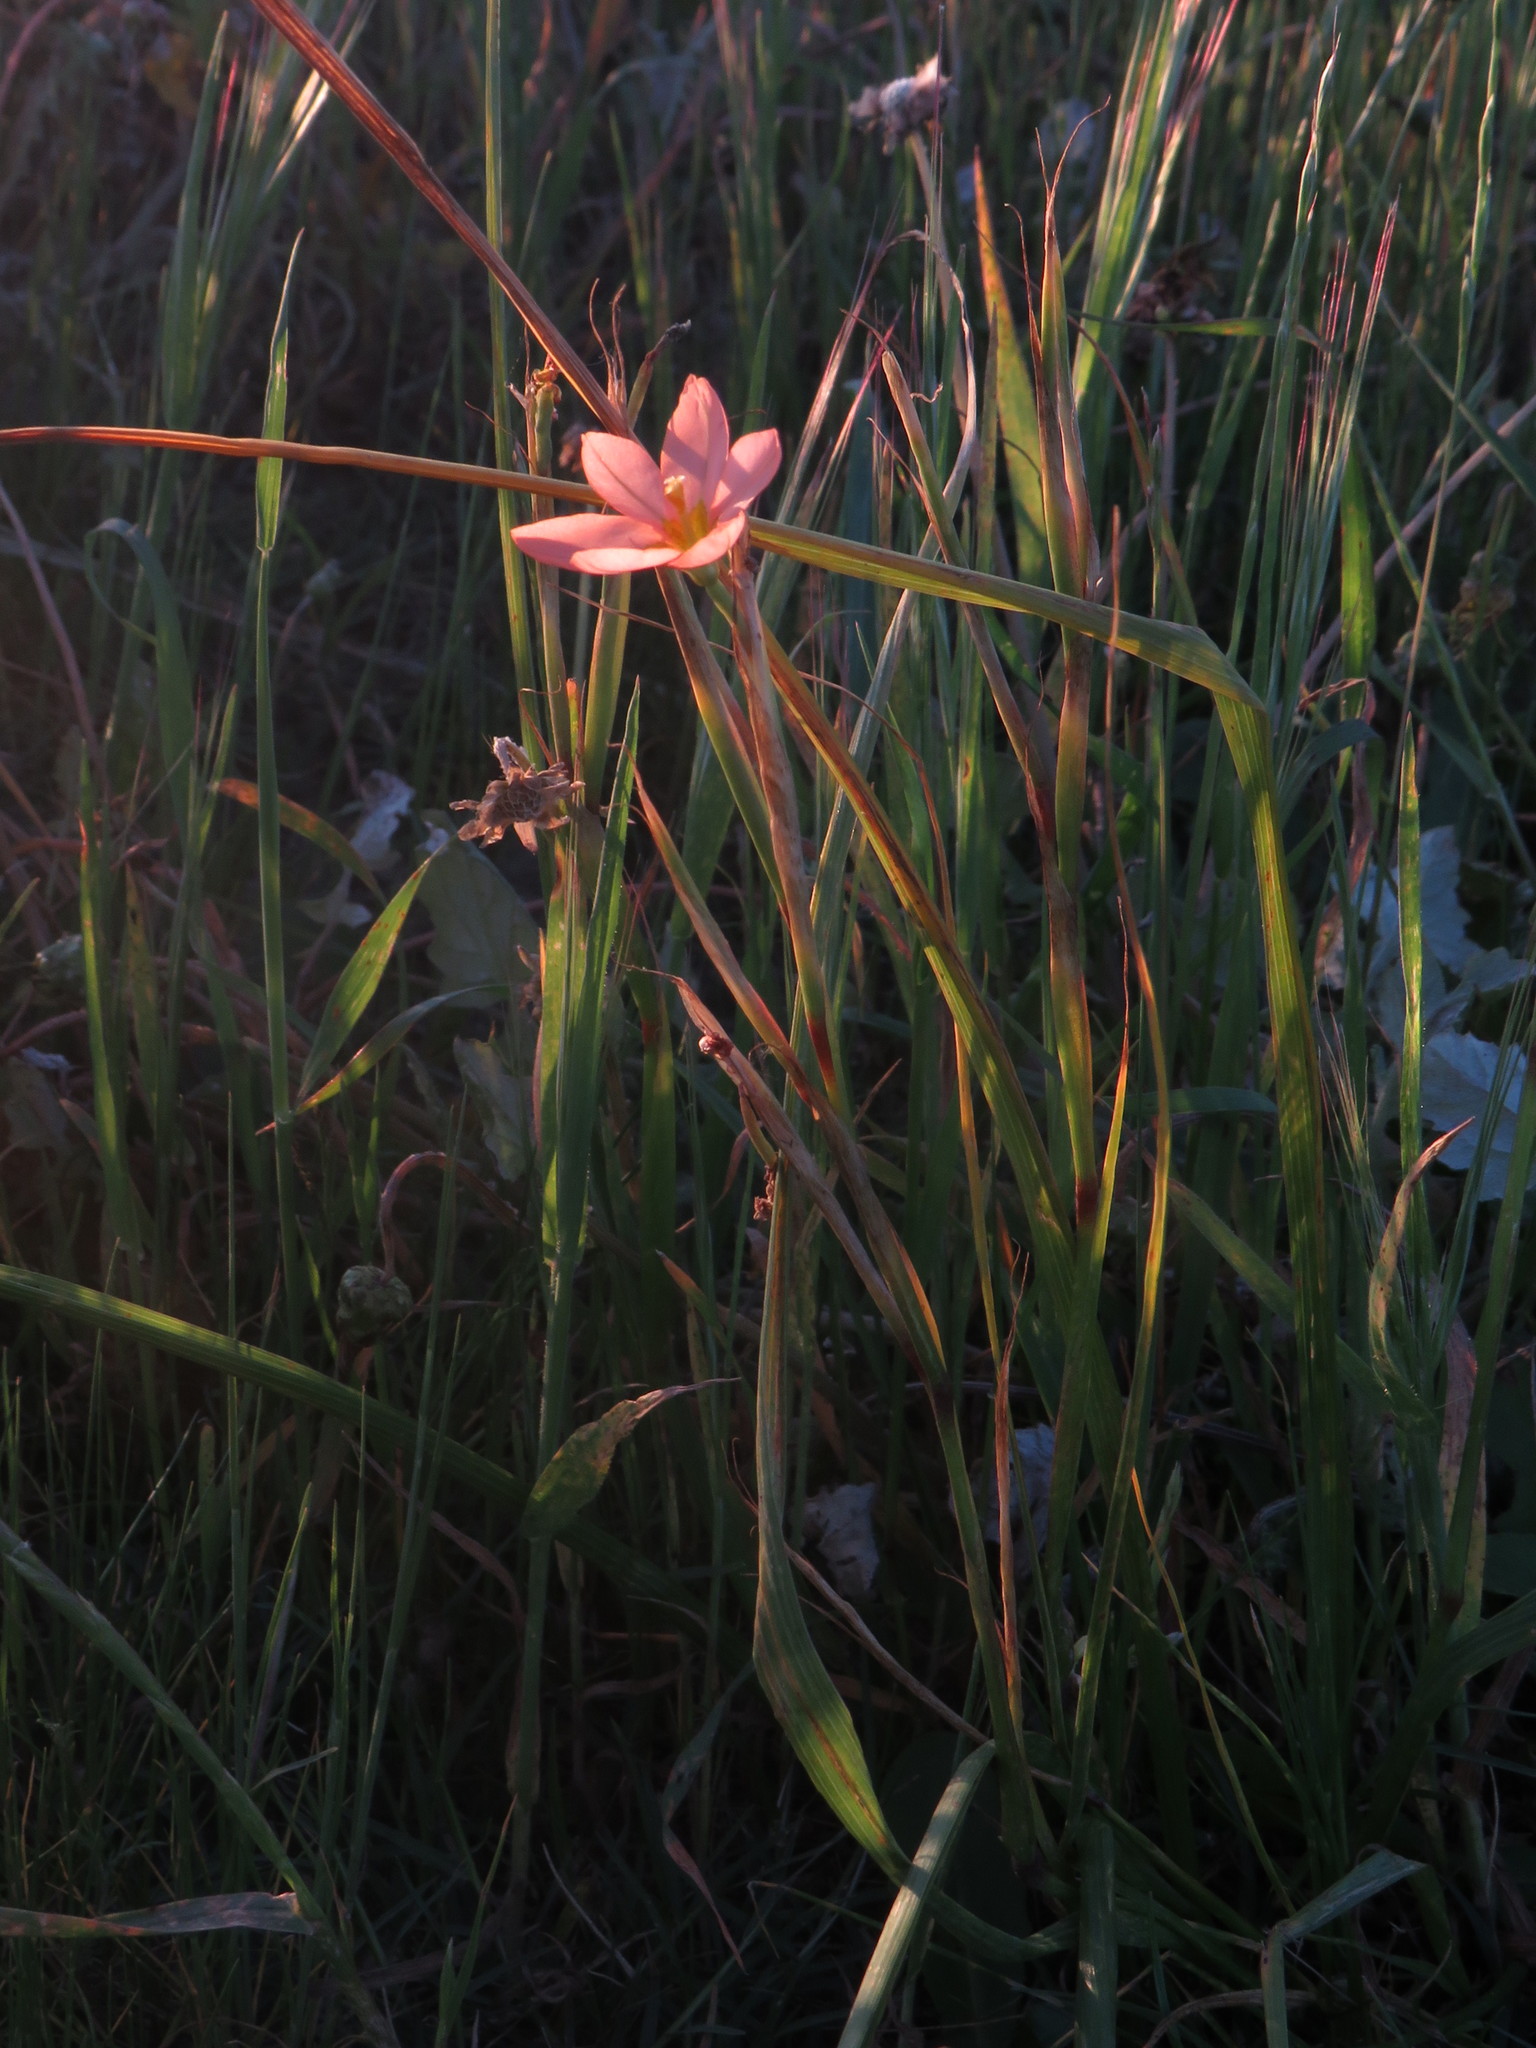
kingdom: Plantae
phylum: Tracheophyta
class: Liliopsida
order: Asparagales
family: Iridaceae
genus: Moraea
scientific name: Moraea miniata
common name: Two-leaf cape-tulip
